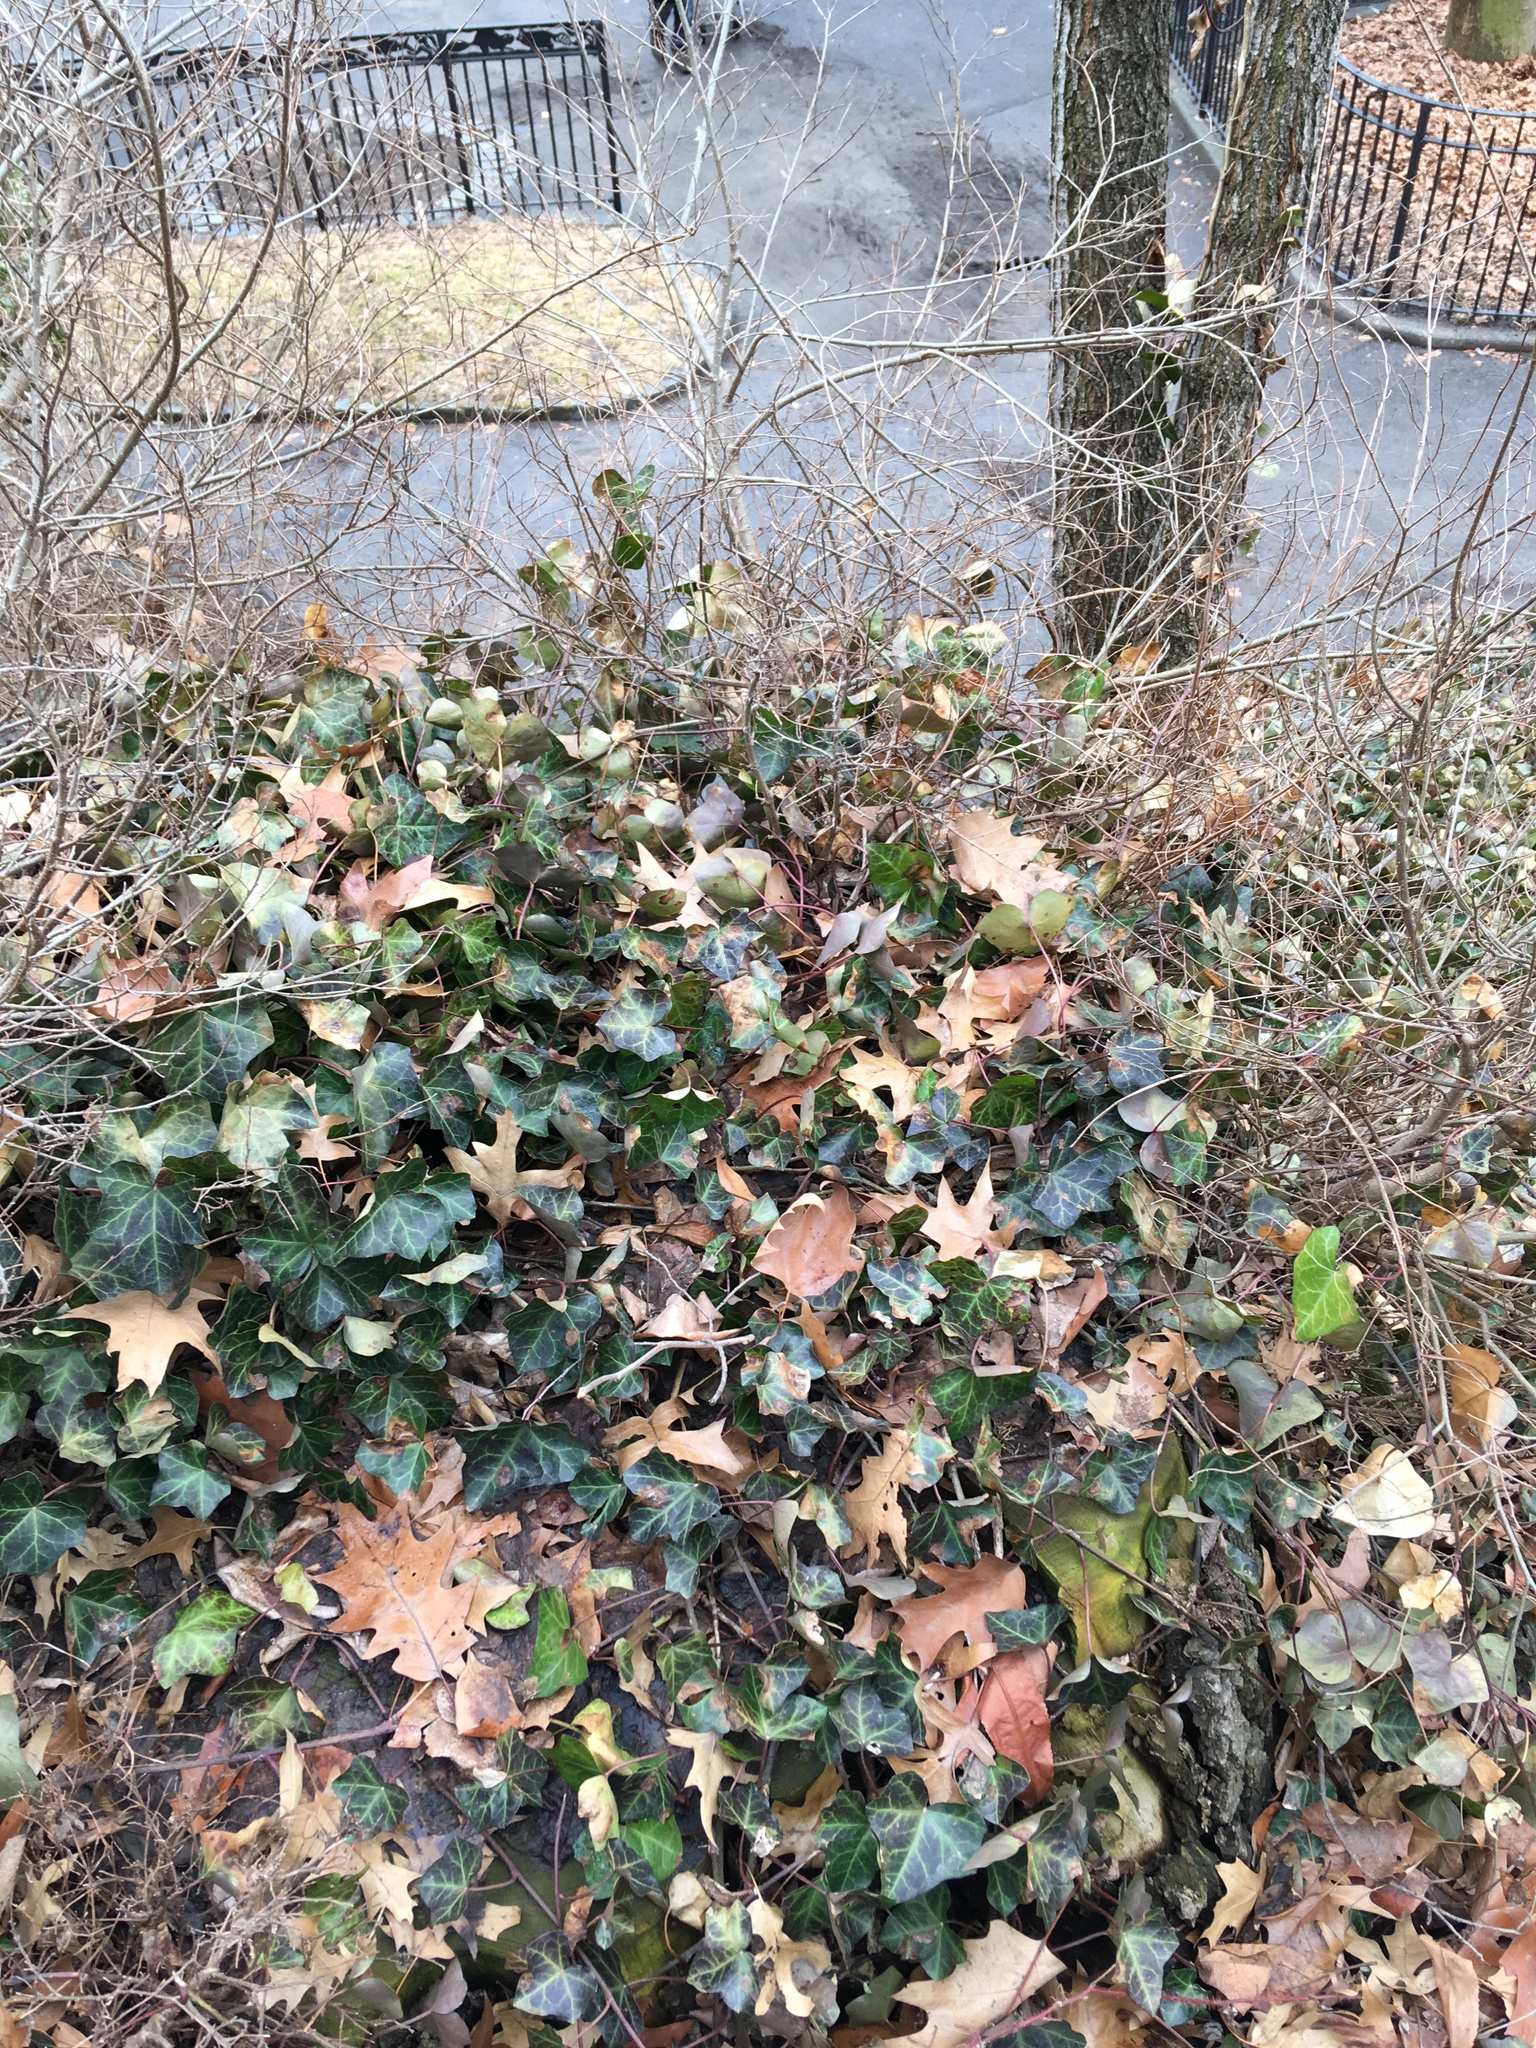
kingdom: Plantae
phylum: Tracheophyta
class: Magnoliopsida
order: Apiales
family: Araliaceae
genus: Hedera
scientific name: Hedera helix
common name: Ivy
